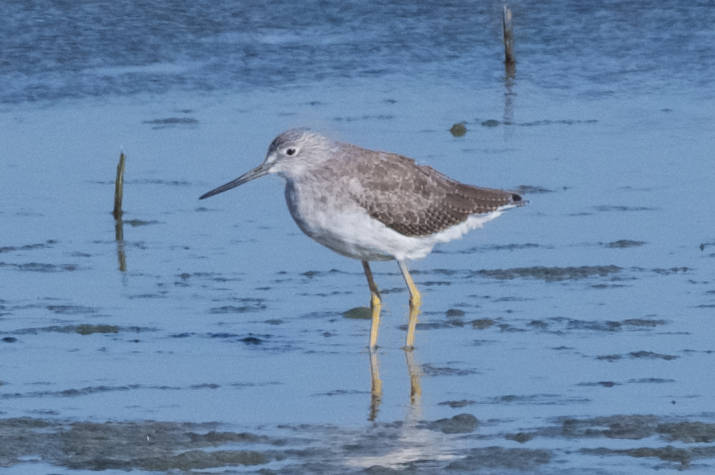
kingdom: Animalia
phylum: Chordata
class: Aves
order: Charadriiformes
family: Scolopacidae
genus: Tringa
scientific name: Tringa melanoleuca
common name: Greater yellowlegs
